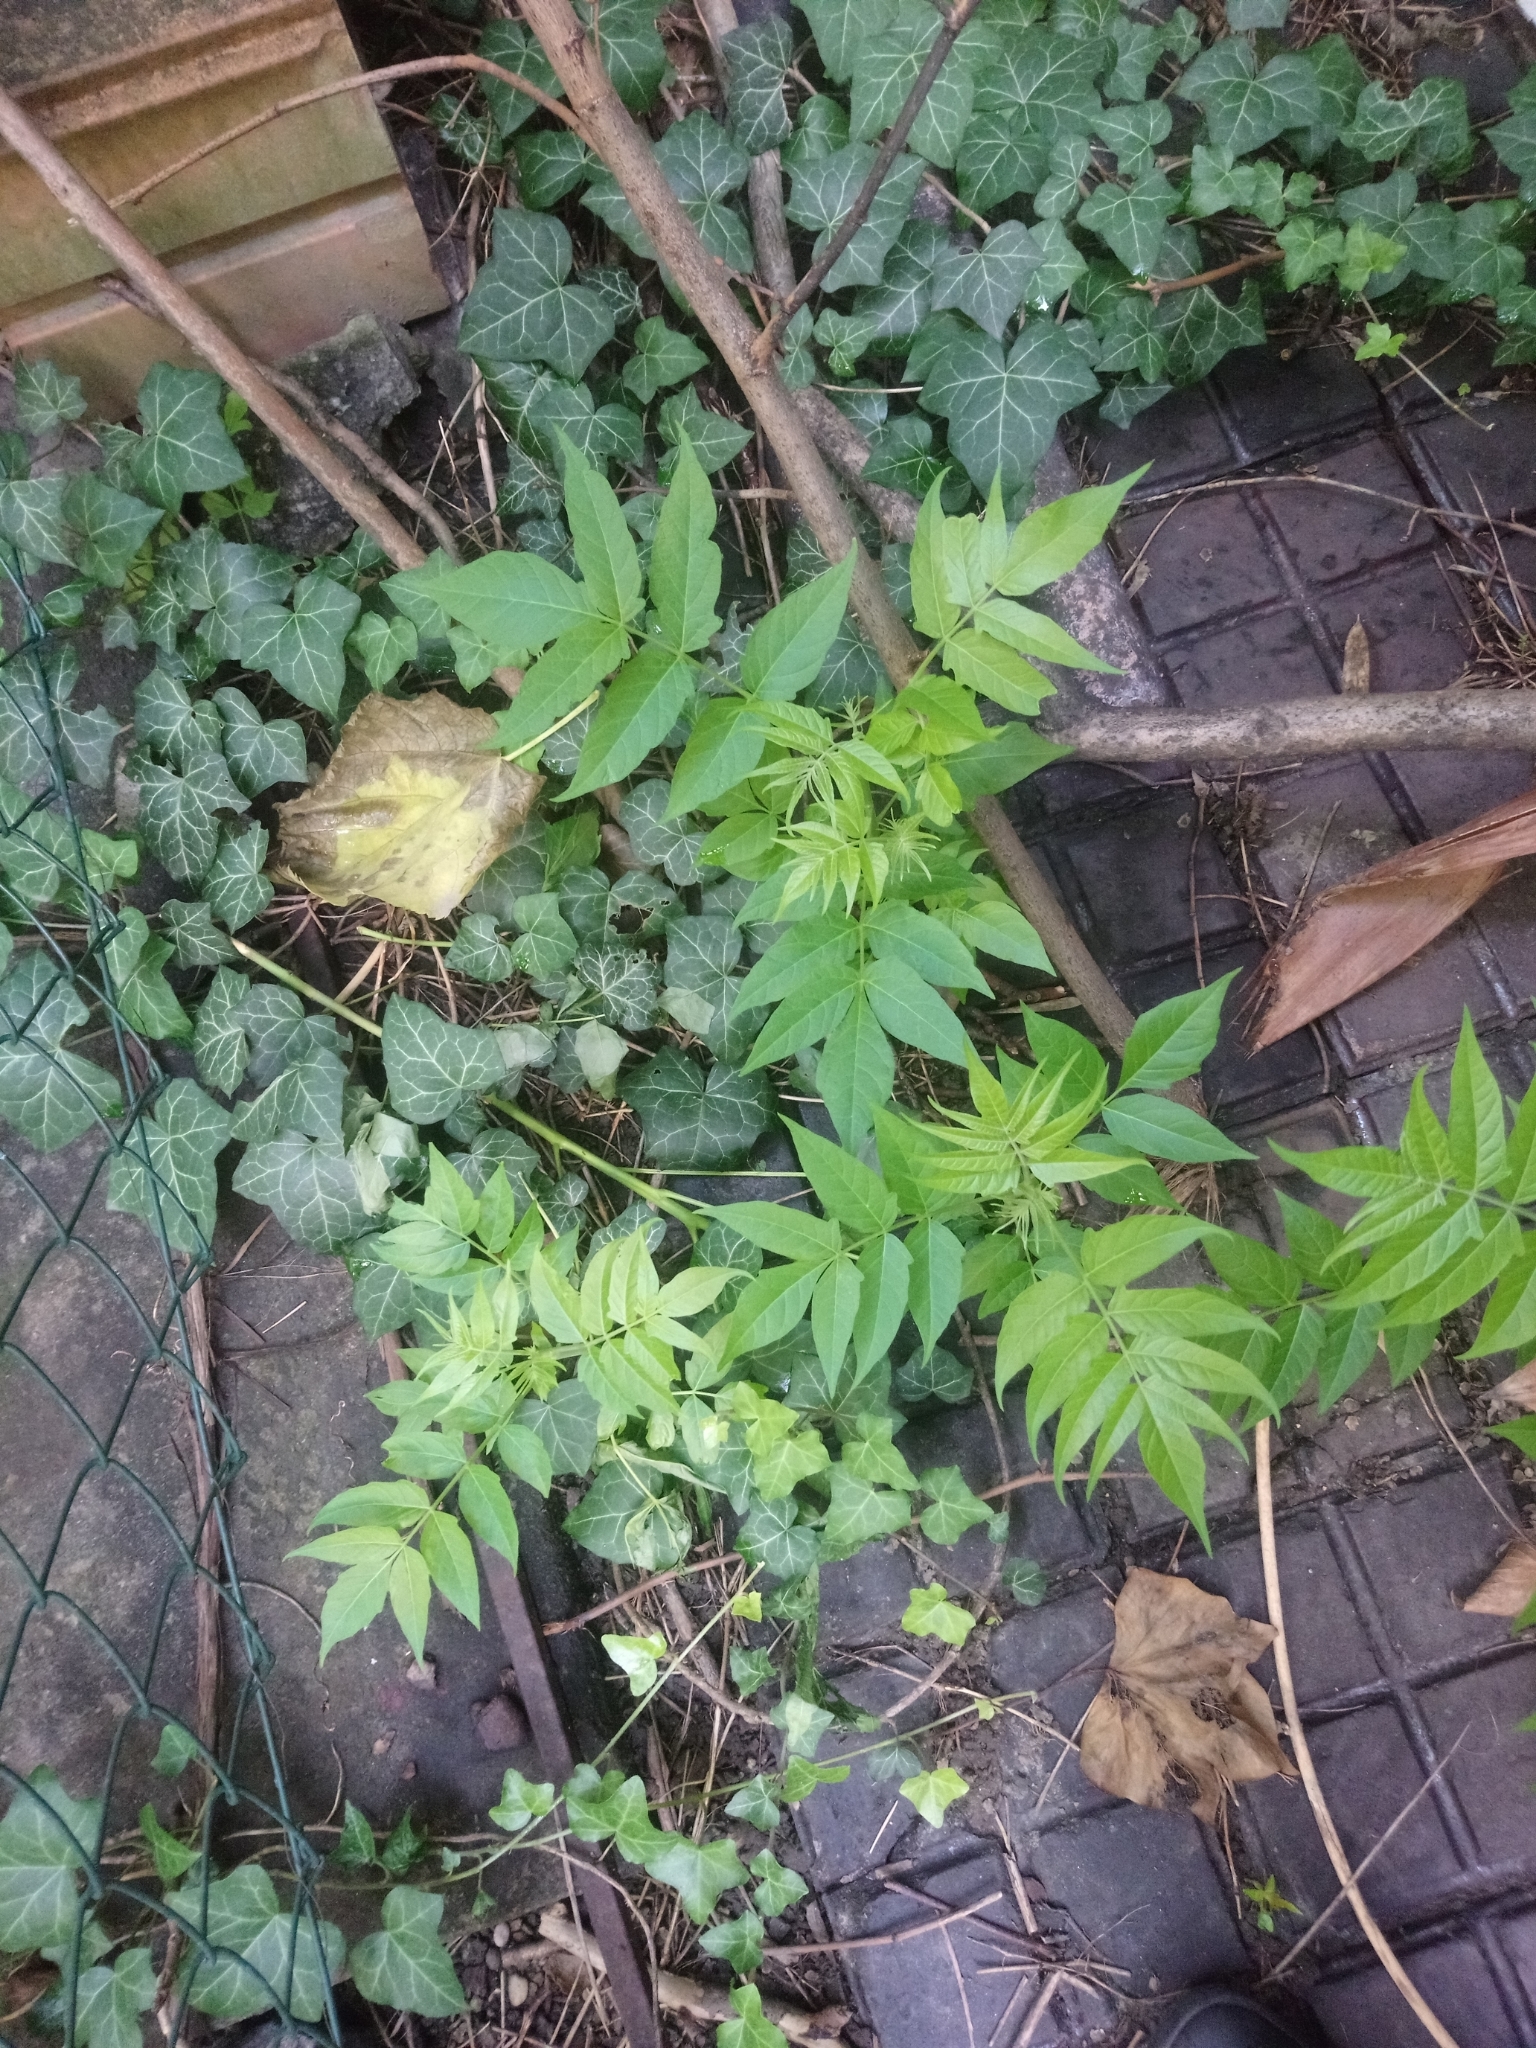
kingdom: Plantae
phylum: Tracheophyta
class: Magnoliopsida
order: Sapindales
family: Simaroubaceae
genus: Ailanthus
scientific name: Ailanthus altissima
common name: Tree-of-heaven
